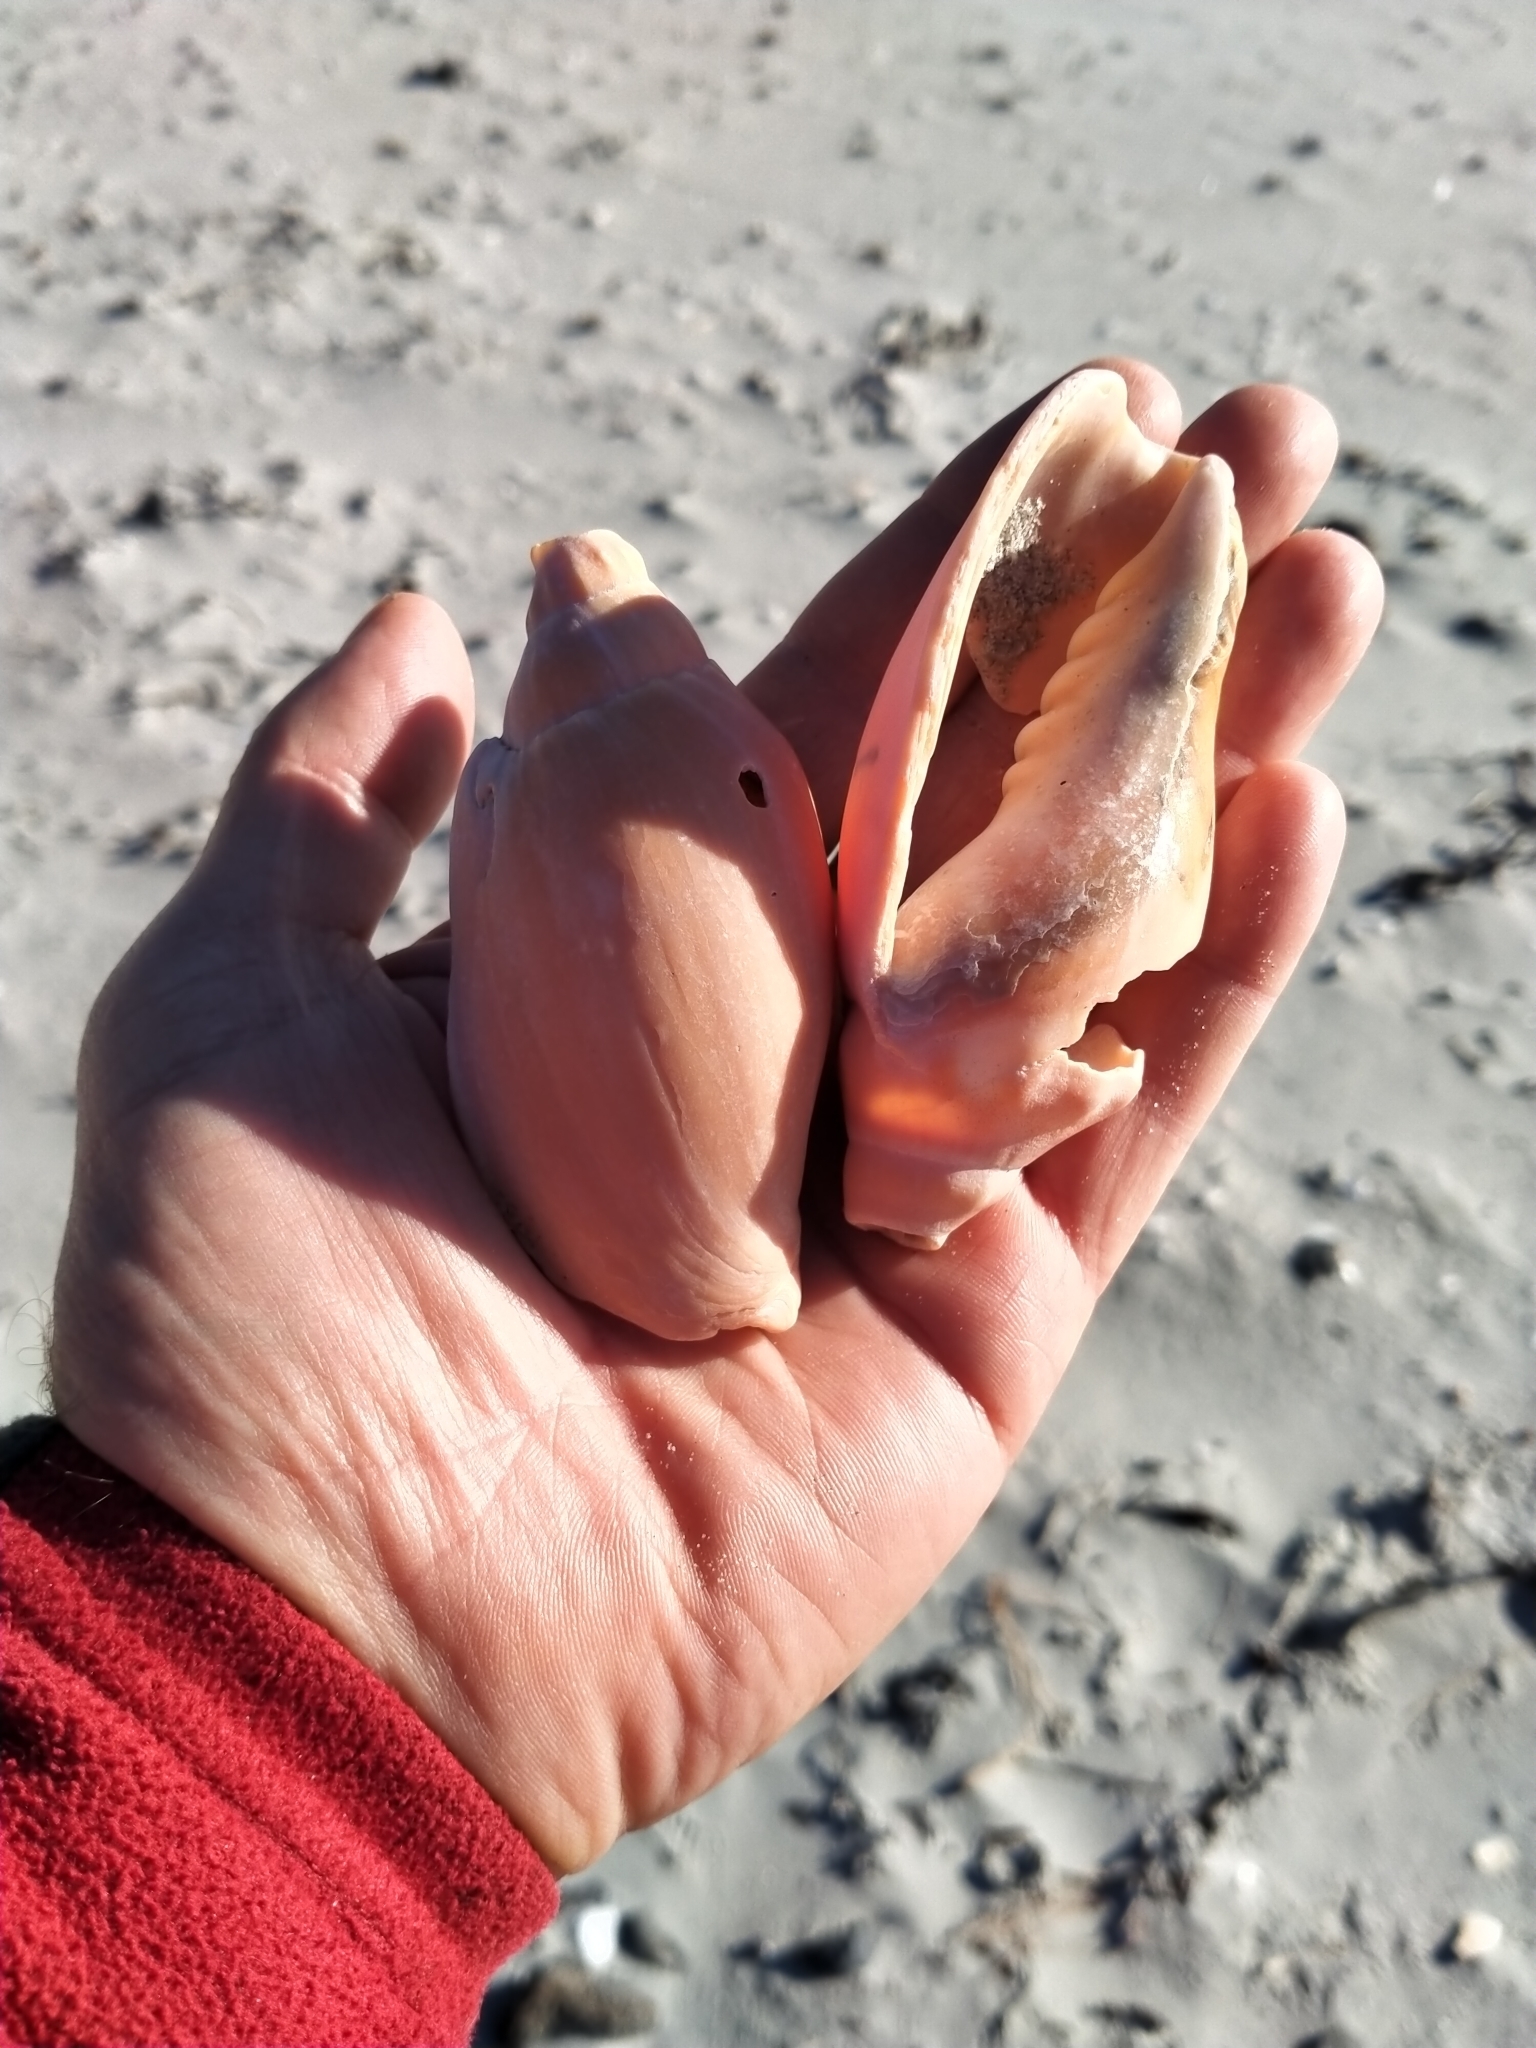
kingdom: Animalia
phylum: Mollusca
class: Gastropoda
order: Neogastropoda
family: Volutidae
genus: Alcithoe
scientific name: Alcithoe arabica
